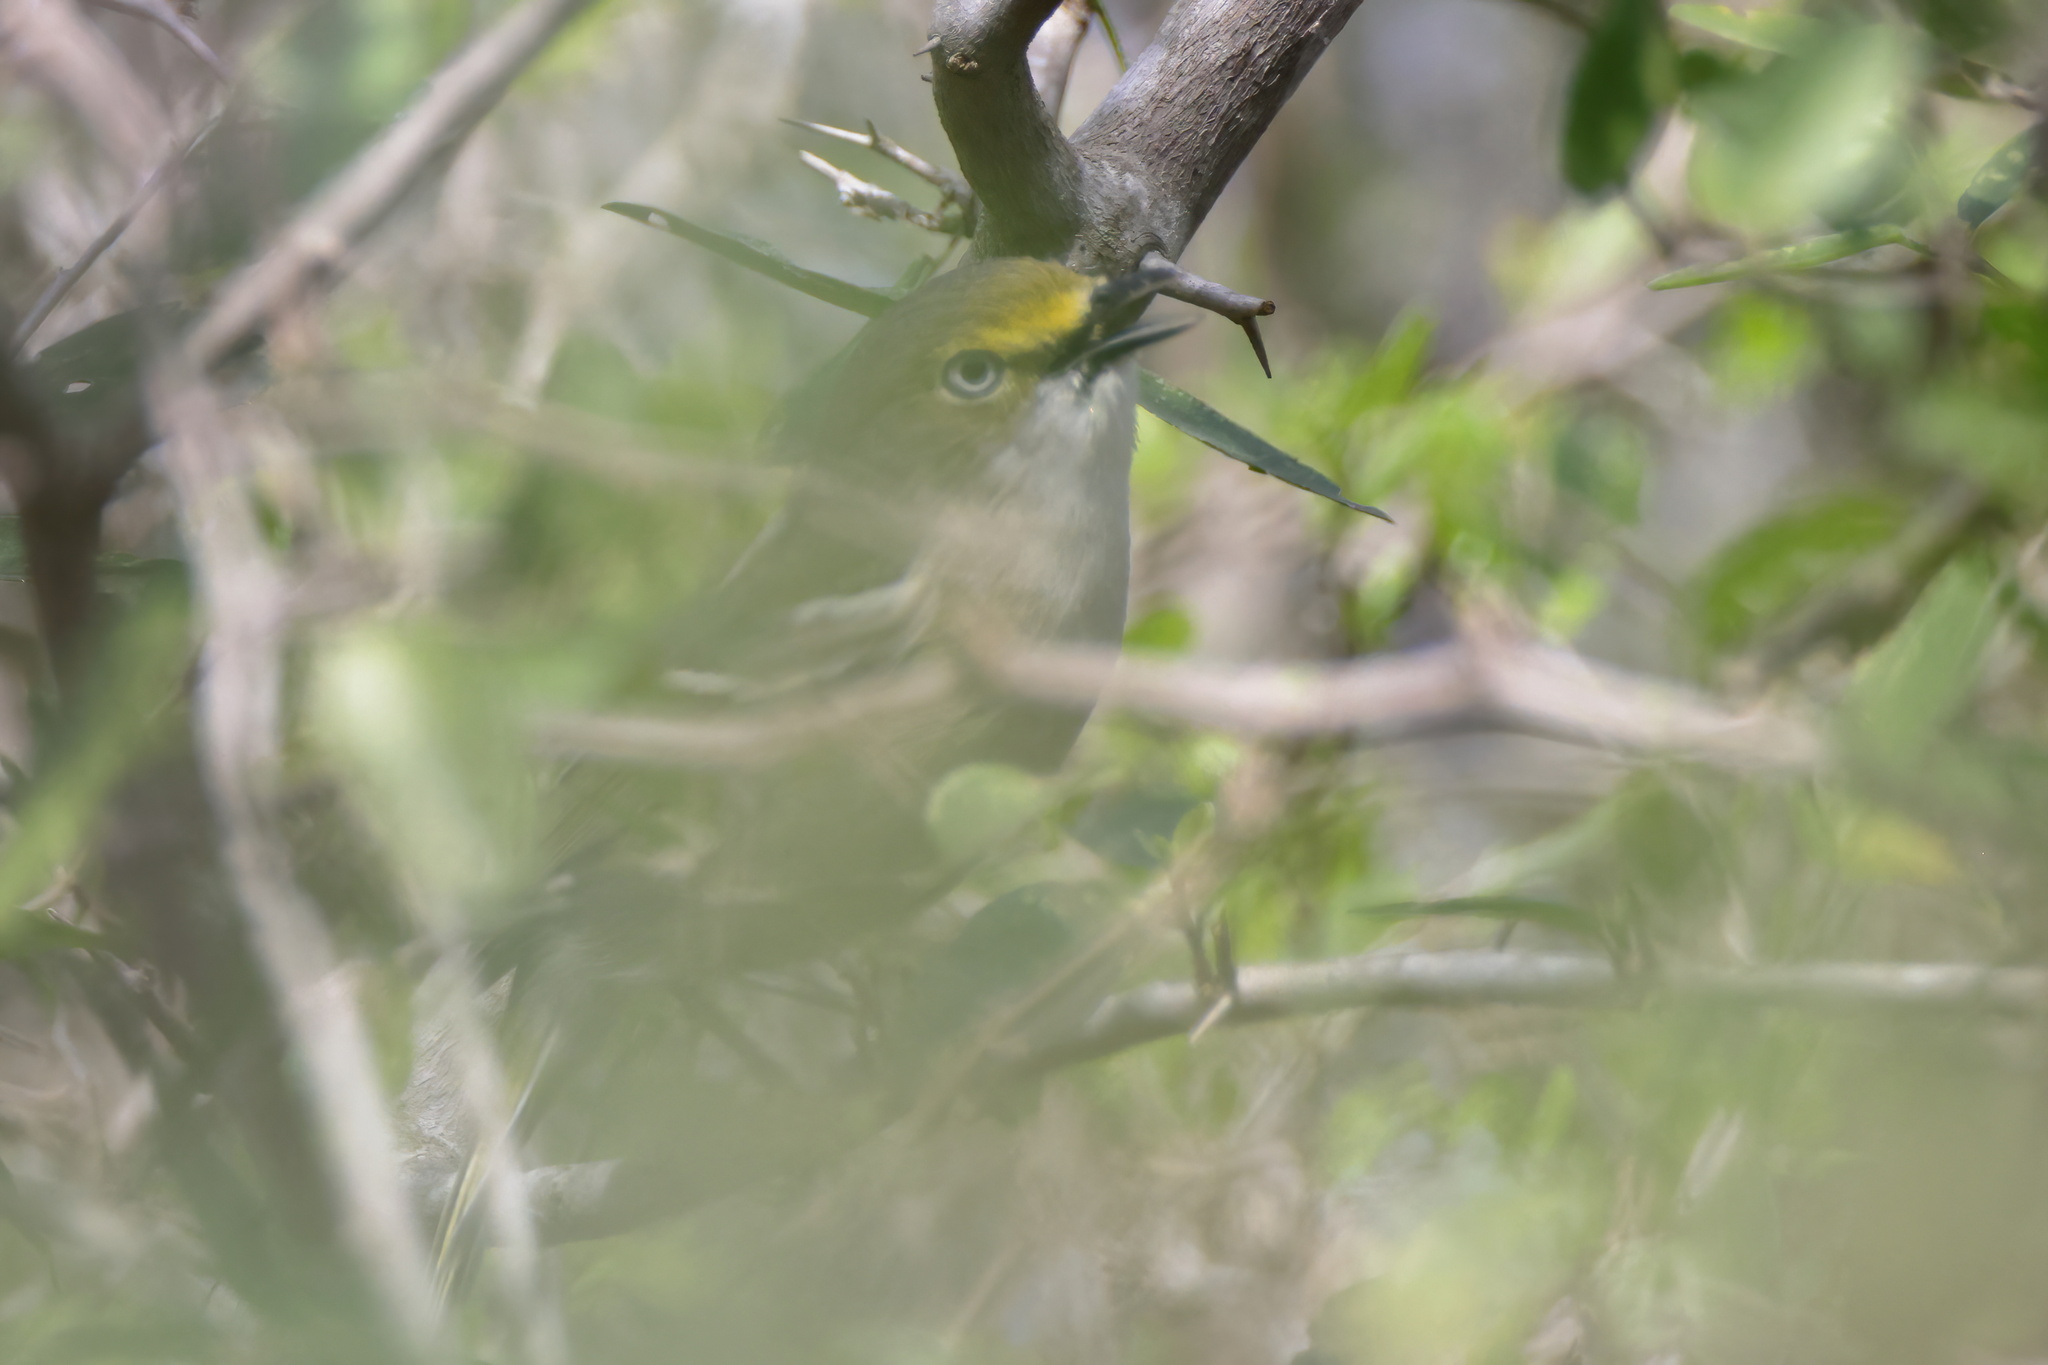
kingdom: Animalia
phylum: Chordata
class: Aves
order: Passeriformes
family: Vireonidae
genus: Vireo
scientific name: Vireo griseus
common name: White-eyed vireo
